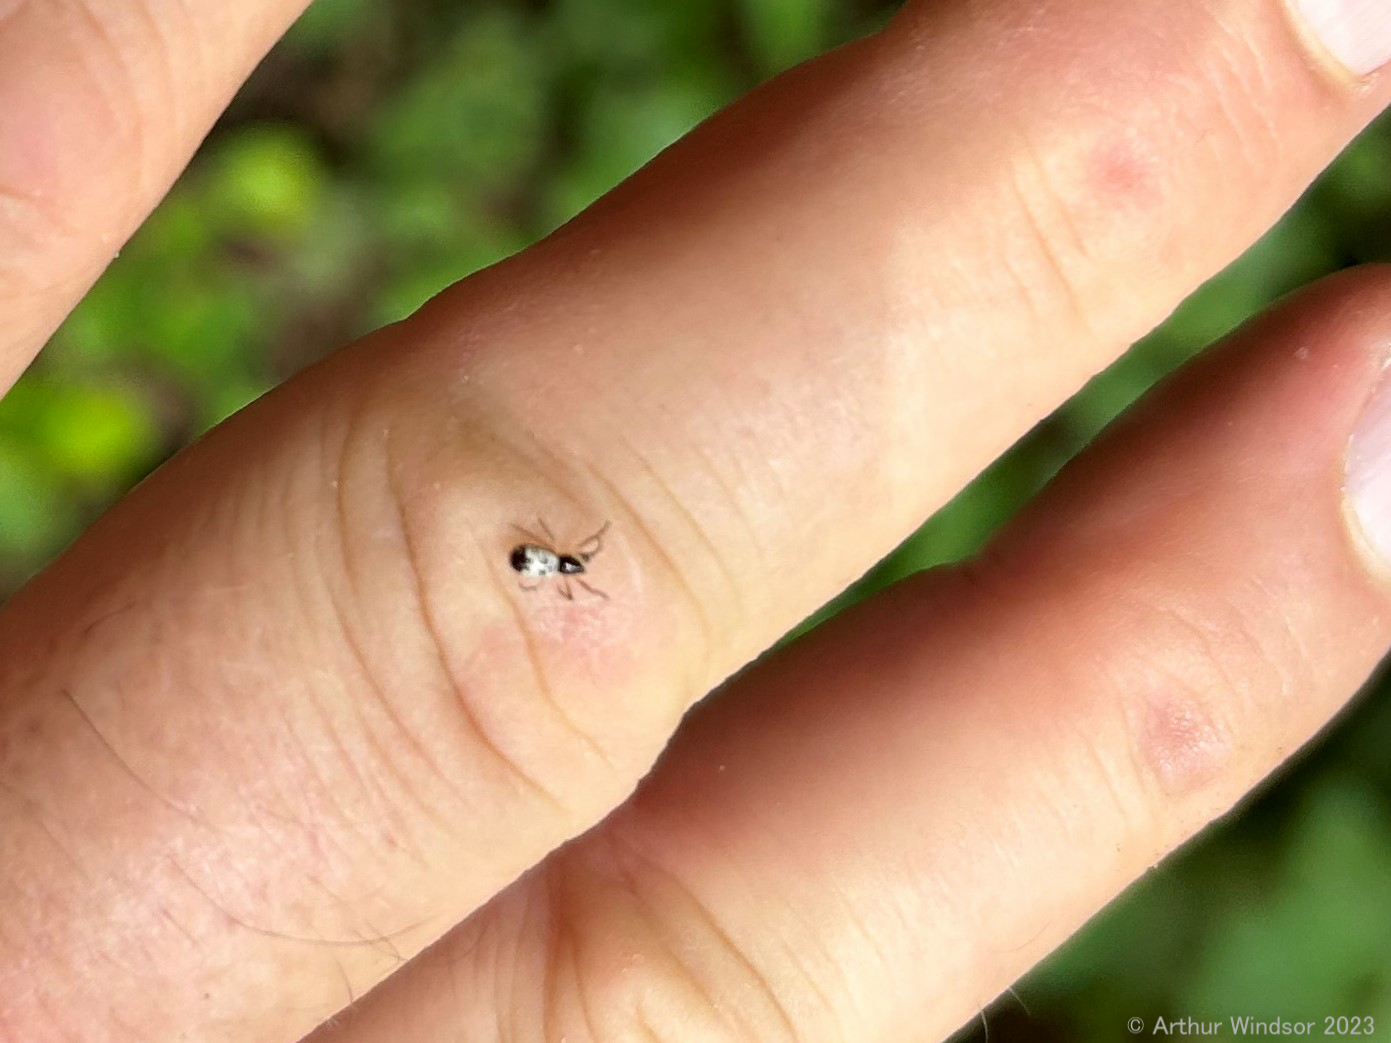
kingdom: Animalia
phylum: Arthropoda
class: Arachnida
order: Araneae
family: Araneidae
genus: Micrathena
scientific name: Micrathena mitrata
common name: Orb weavers
